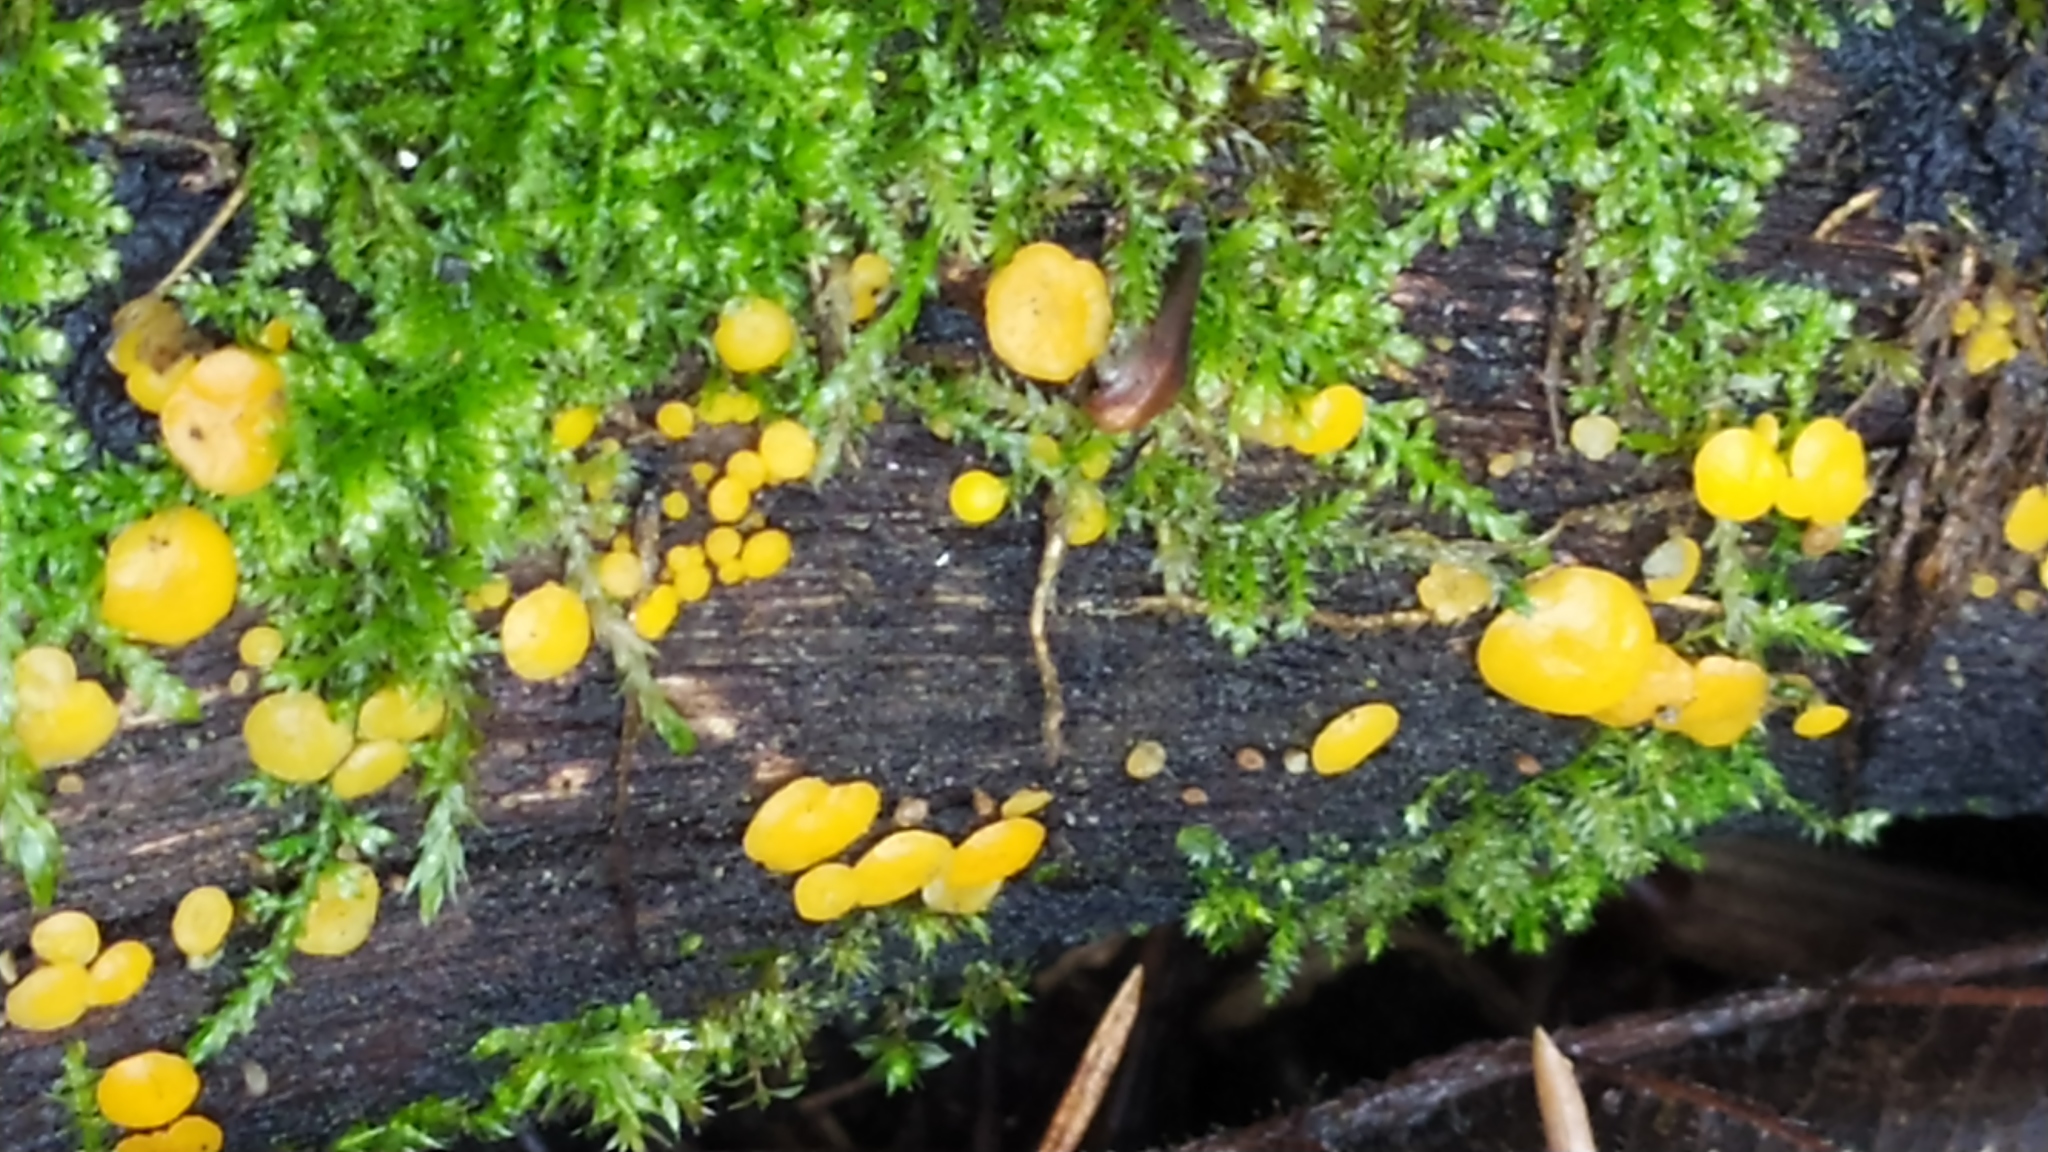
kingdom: Fungi
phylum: Ascomycota
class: Leotiomycetes
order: Helotiales
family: Pezizellaceae
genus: Calycina
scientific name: Calycina citrina
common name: Yellow fairy cups
